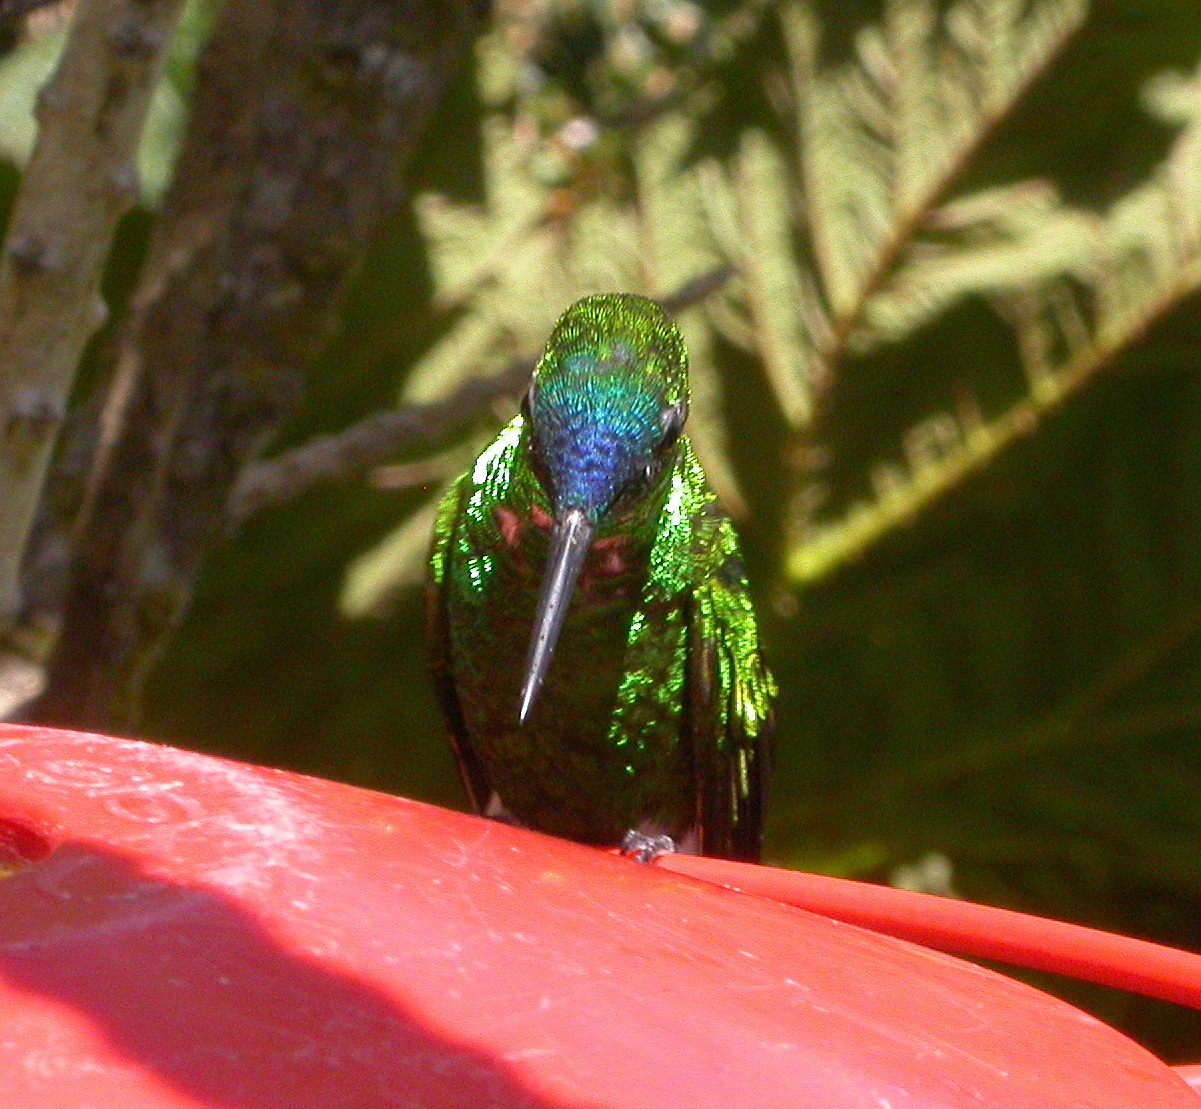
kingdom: Animalia
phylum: Chordata
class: Aves
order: Apodiformes
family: Trochilidae
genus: Eriocnemis
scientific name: Eriocnemis luciani
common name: Sapphire-vented puffleg
